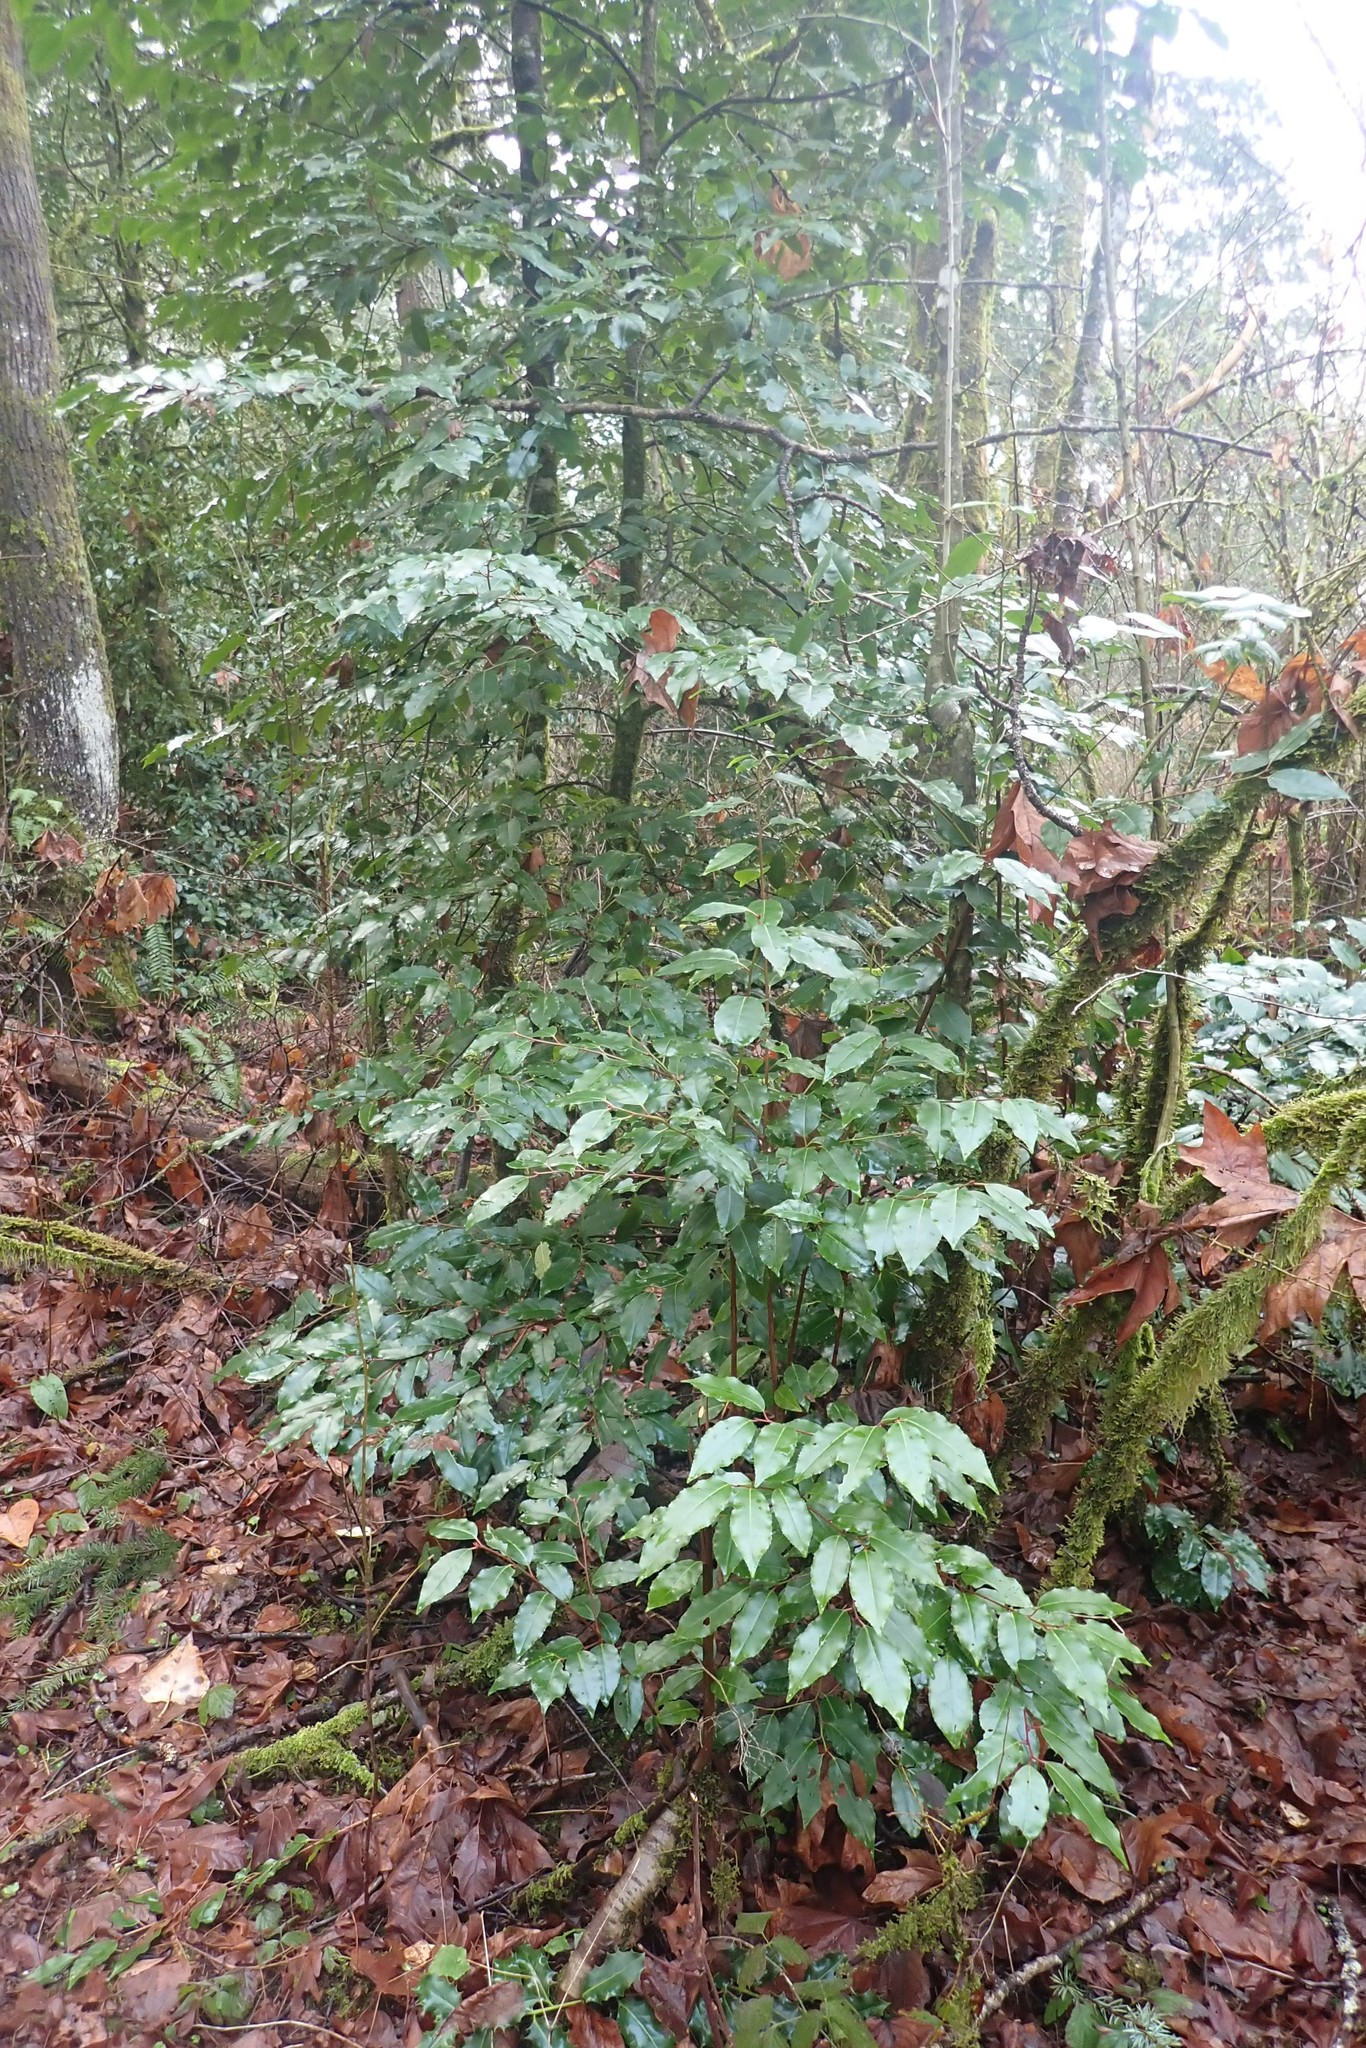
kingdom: Plantae
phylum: Tracheophyta
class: Magnoliopsida
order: Rosales
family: Rosaceae
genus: Prunus
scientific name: Prunus lusitanica
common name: Portugal laurel
